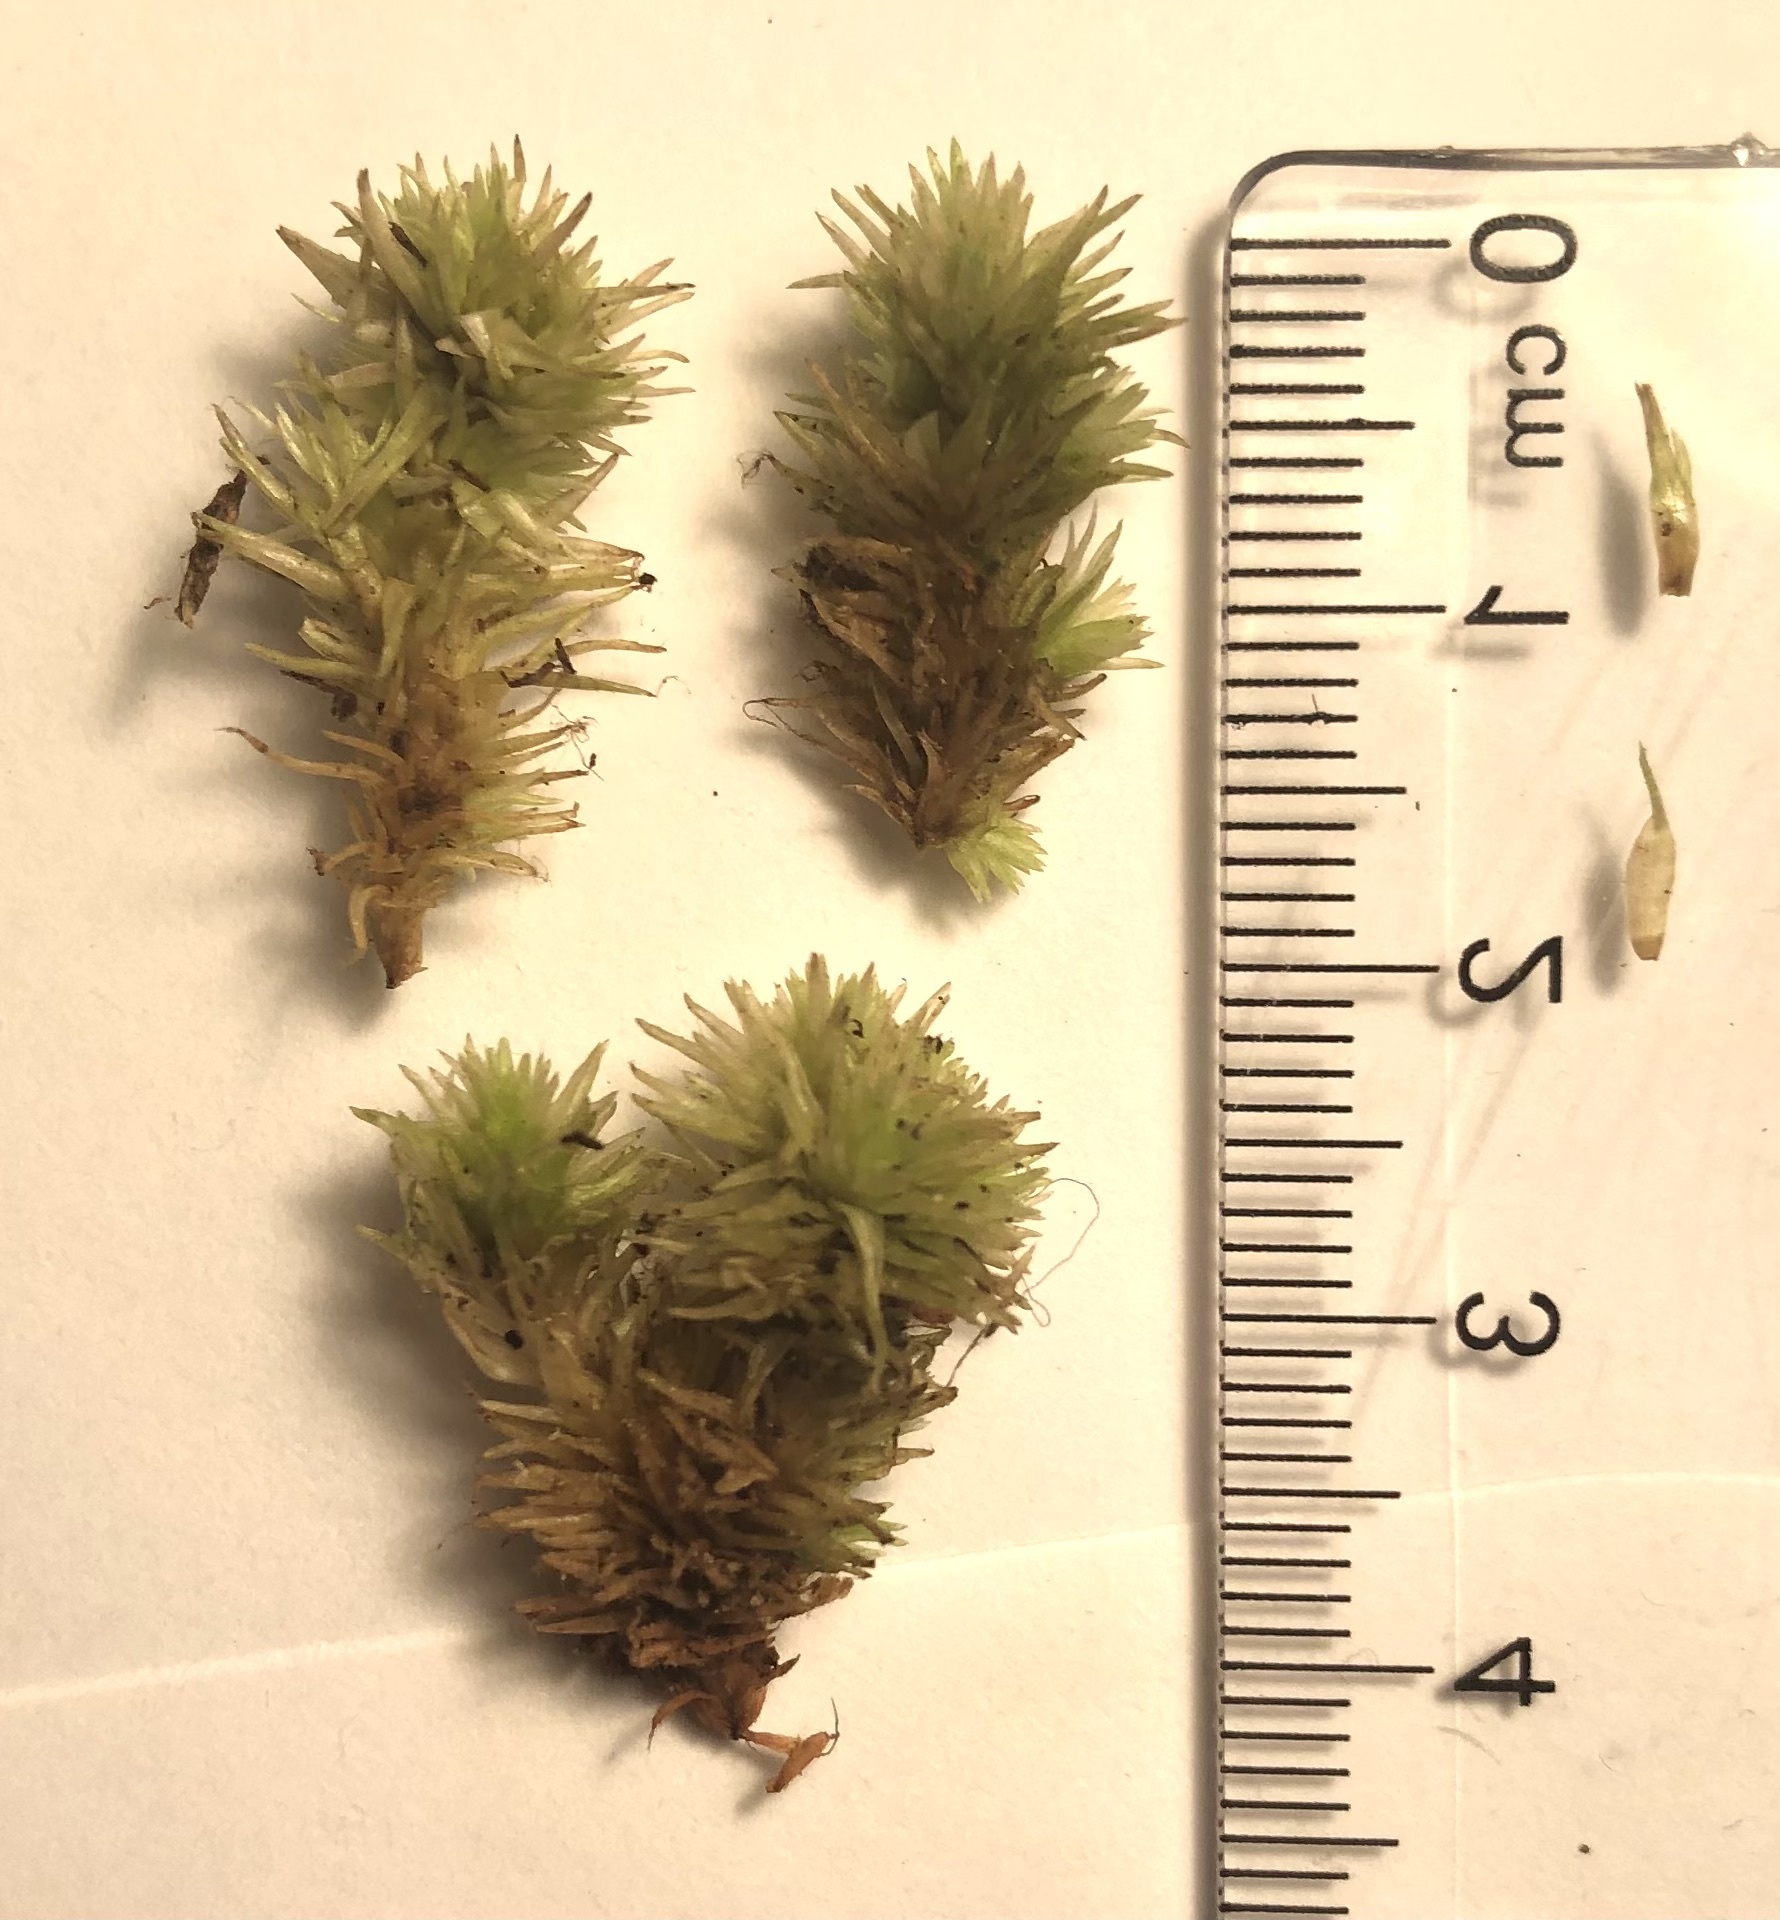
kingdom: Plantae
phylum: Bryophyta
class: Bryopsida
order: Dicranales
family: Leucobryaceae
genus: Leucobryum
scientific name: Leucobryum glaucum
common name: Large white-moss
